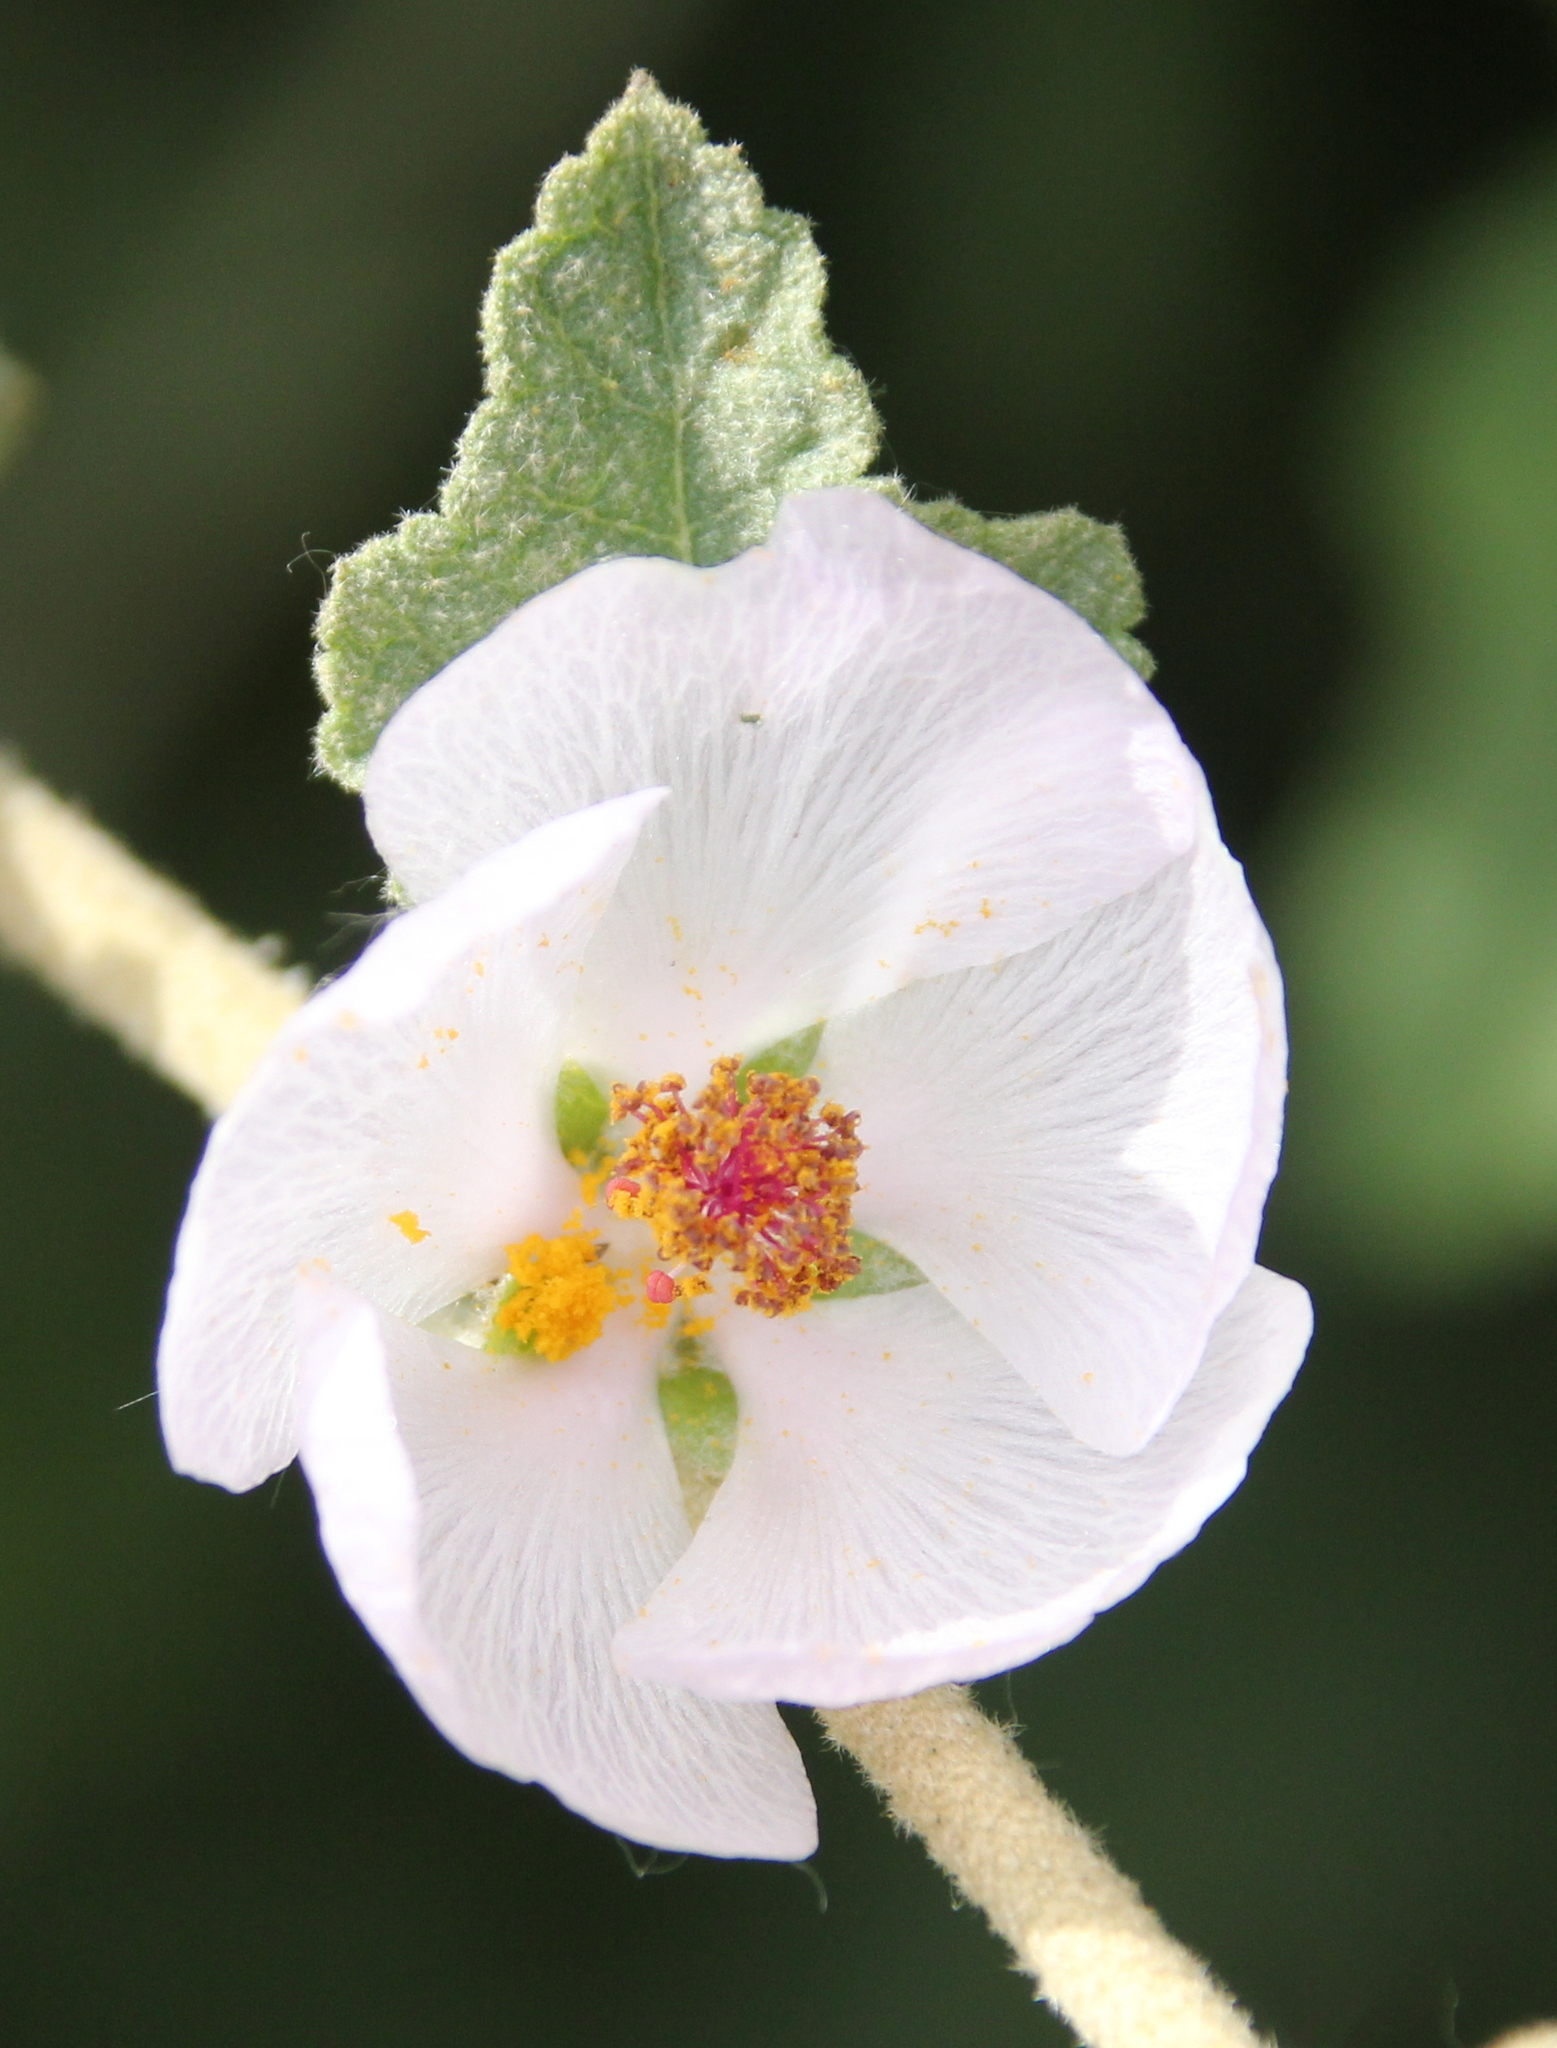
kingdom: Plantae
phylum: Tracheophyta
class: Magnoliopsida
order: Malvales
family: Malvaceae
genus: Malacothamnus
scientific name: Malacothamnus fasciculatus
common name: Sant cruz island bush-mallow
